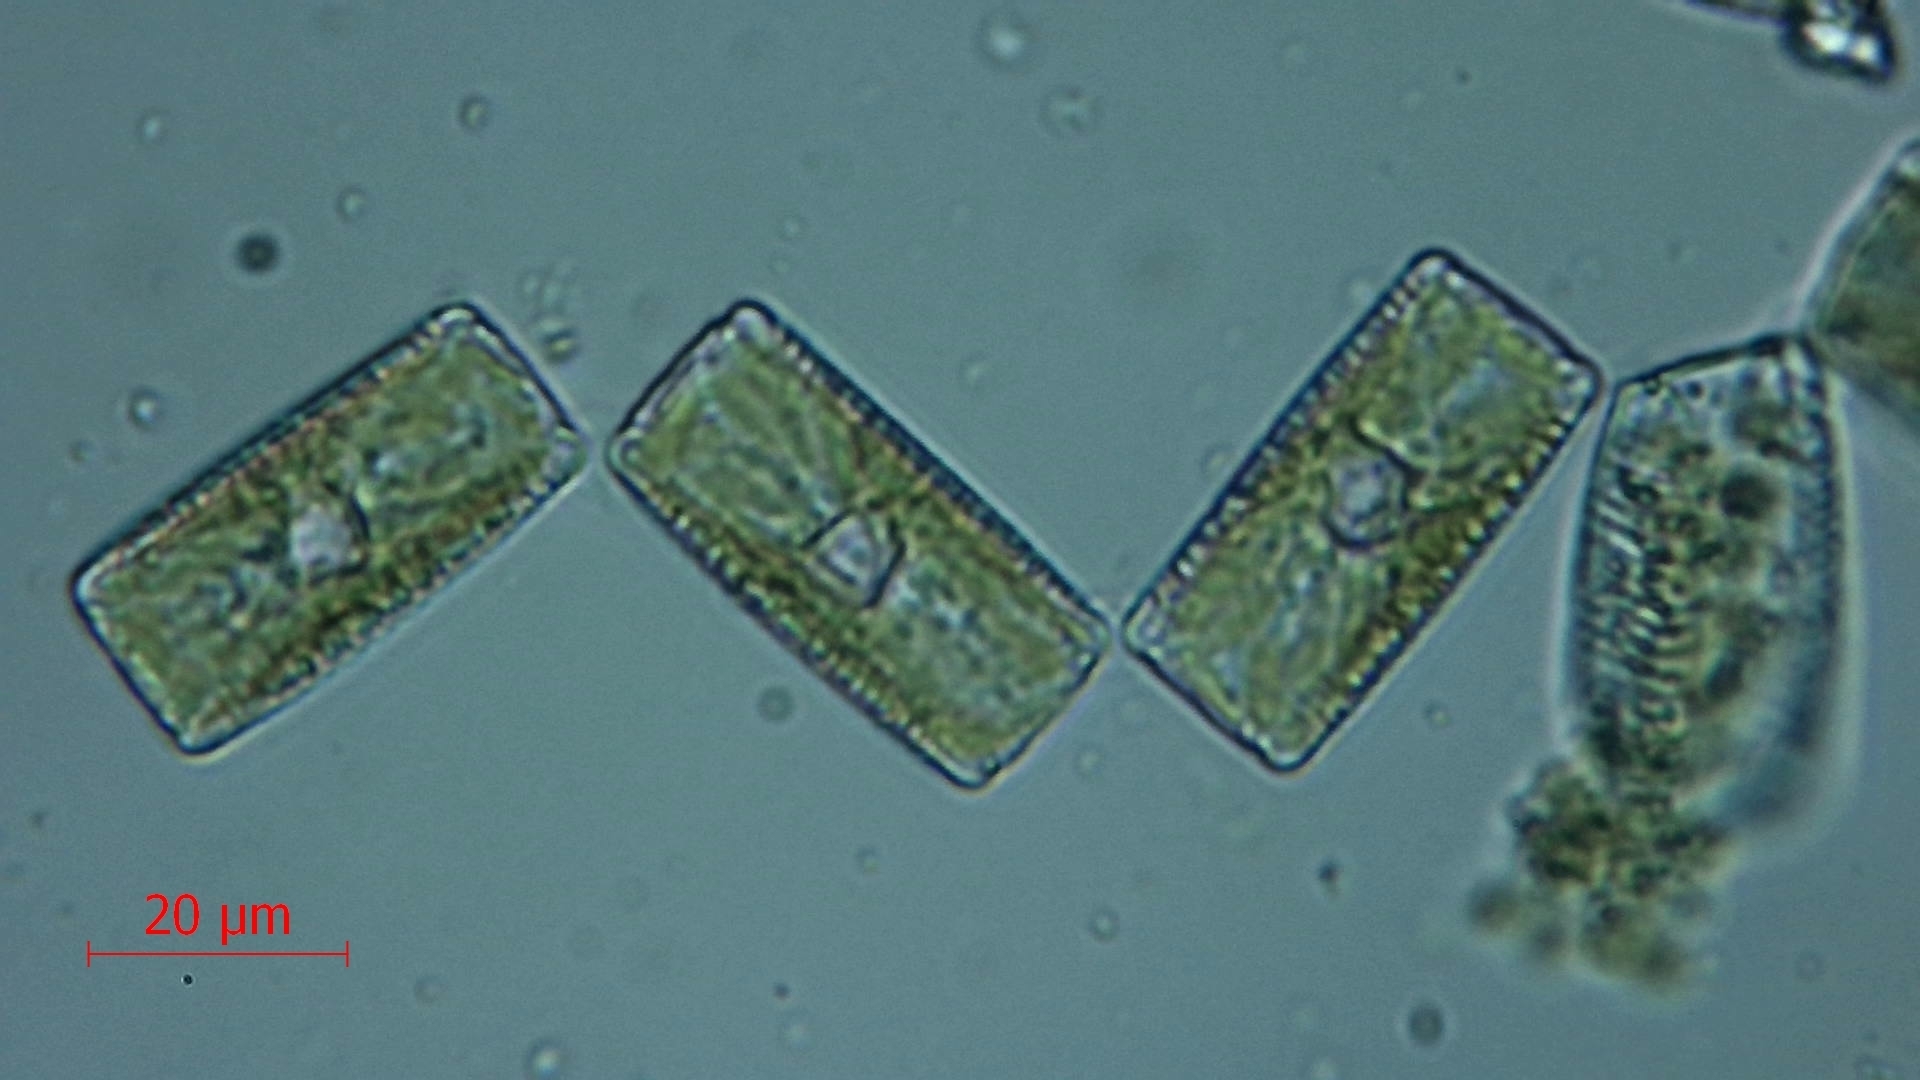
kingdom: Chromista
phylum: Ochrophyta
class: Bacillariophyceae
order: Fragilariales
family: Fragilariaceae
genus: Diatoma
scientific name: Diatoma vulgaris
